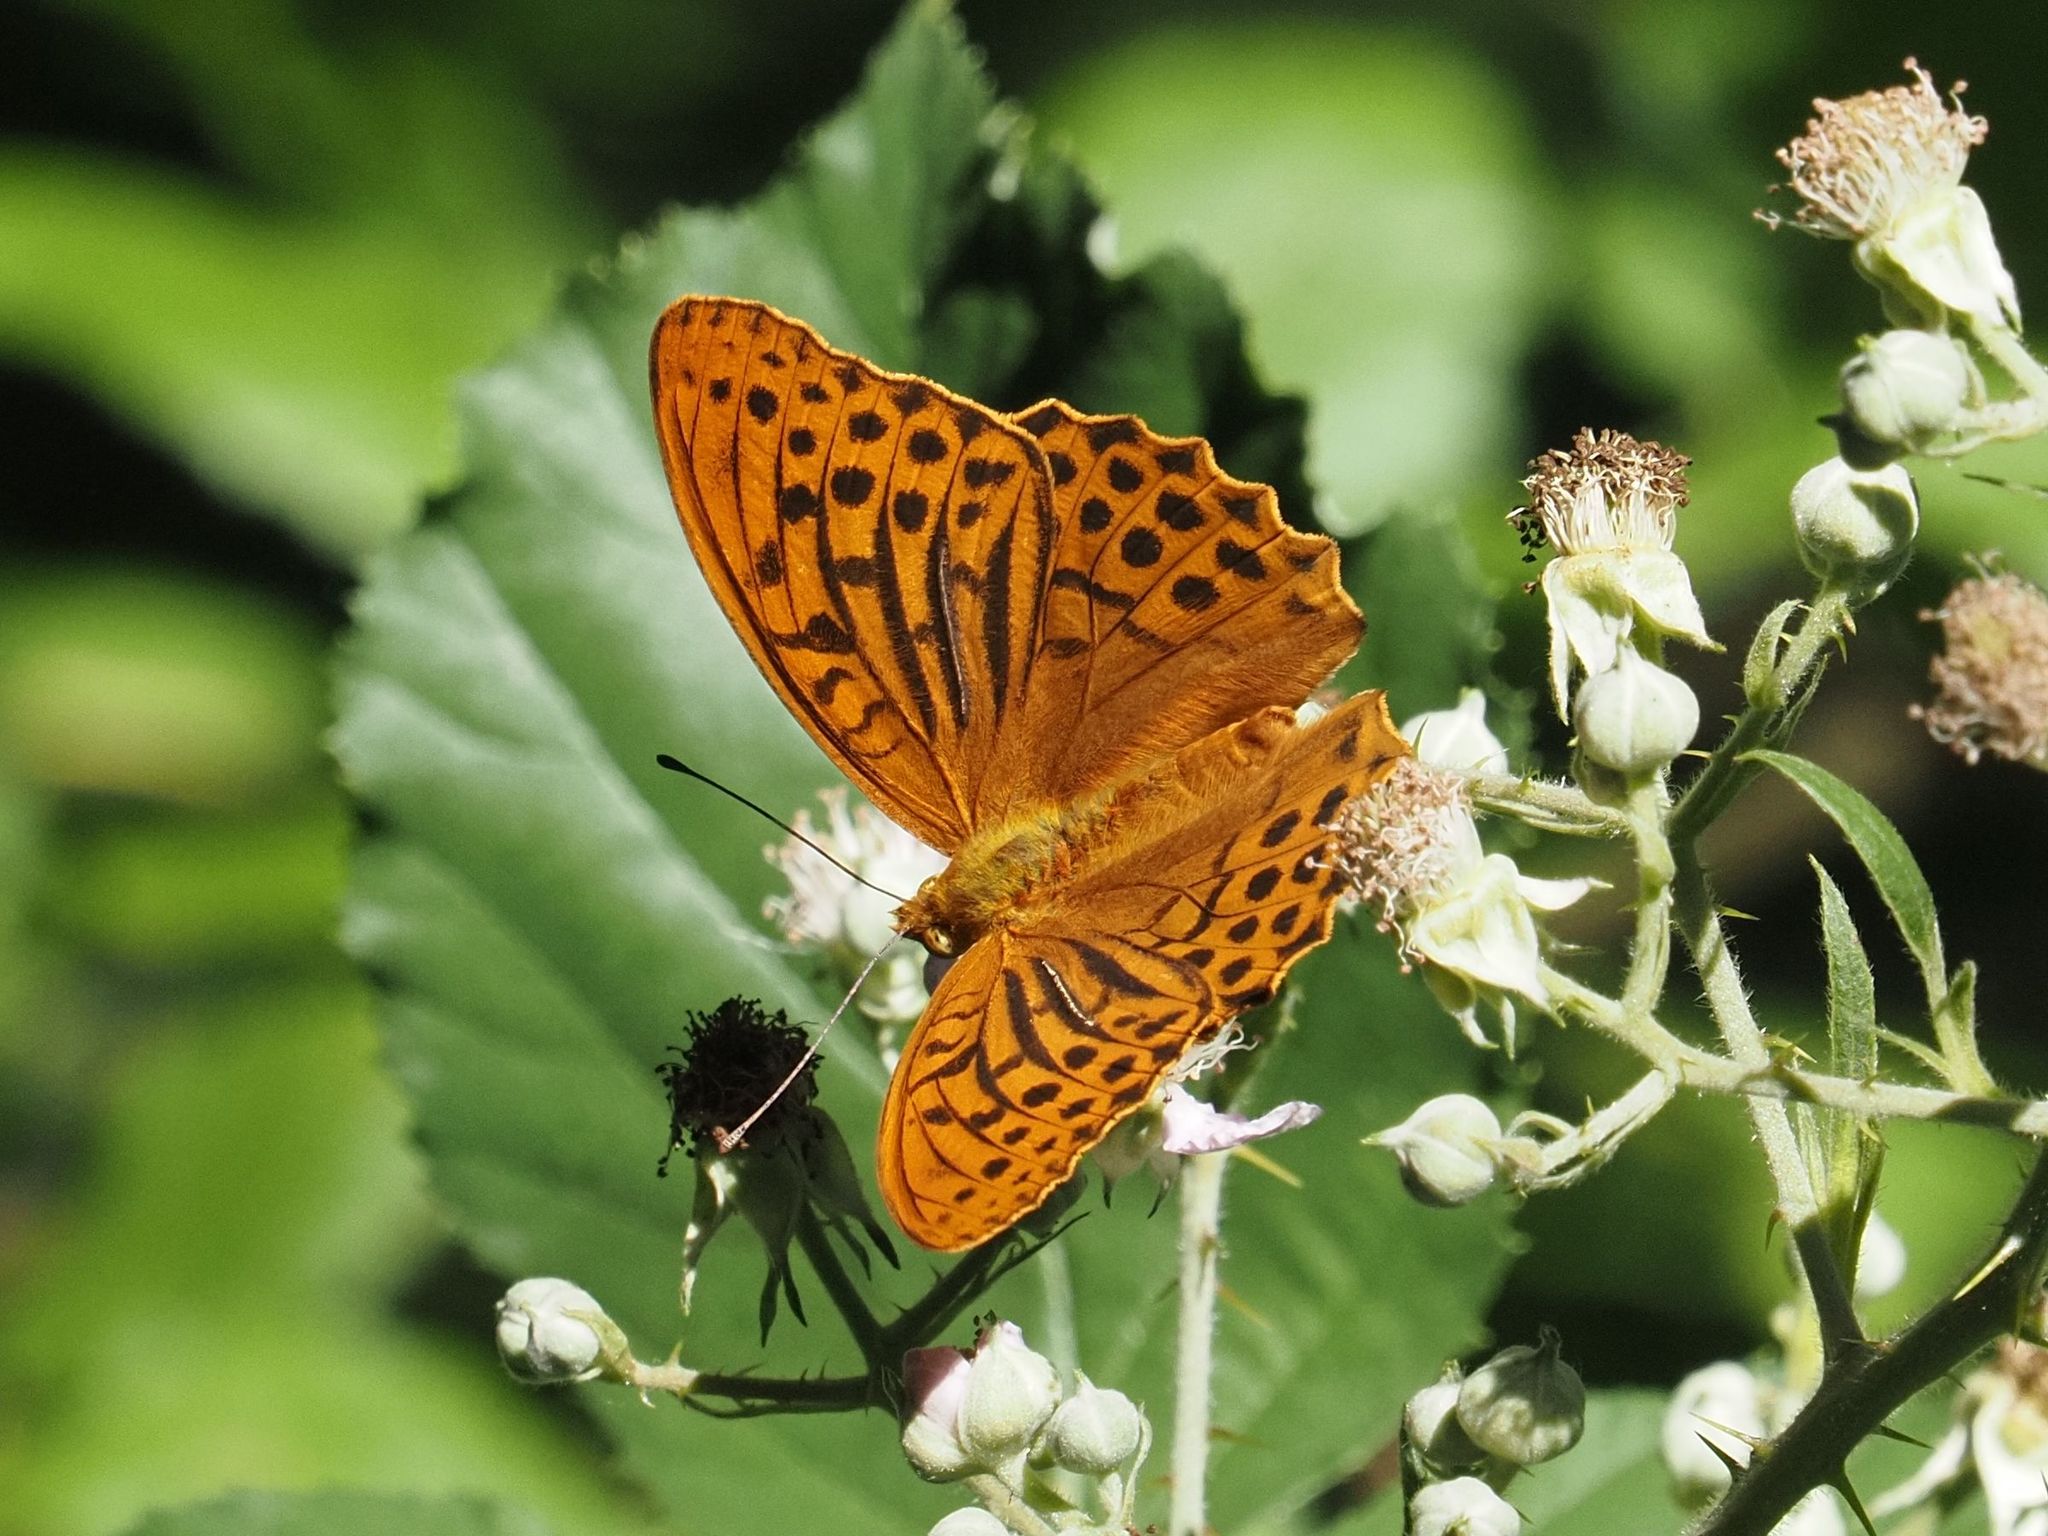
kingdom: Animalia
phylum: Arthropoda
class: Insecta
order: Lepidoptera
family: Nymphalidae
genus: Argynnis
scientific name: Argynnis paphia
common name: Silver-washed fritillary
